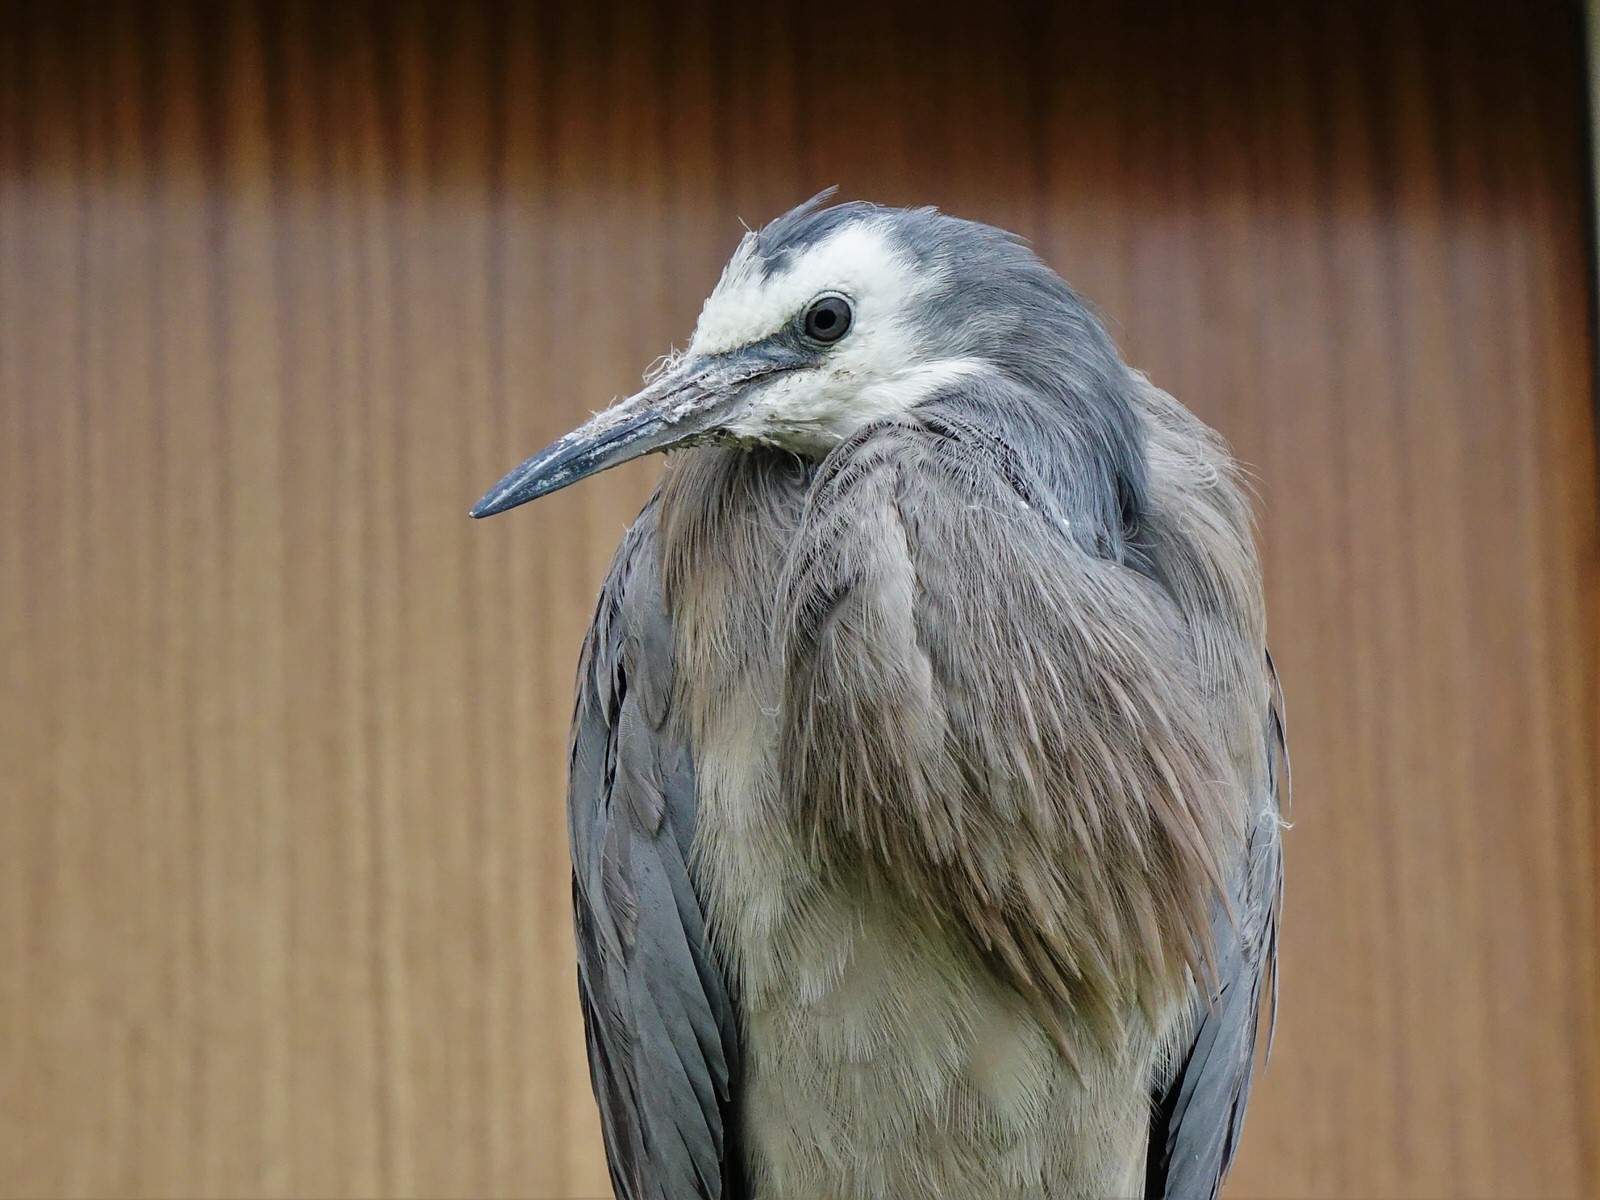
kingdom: Animalia
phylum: Chordata
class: Aves
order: Pelecaniformes
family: Ardeidae
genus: Egretta
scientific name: Egretta novaehollandiae
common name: White-faced heron
